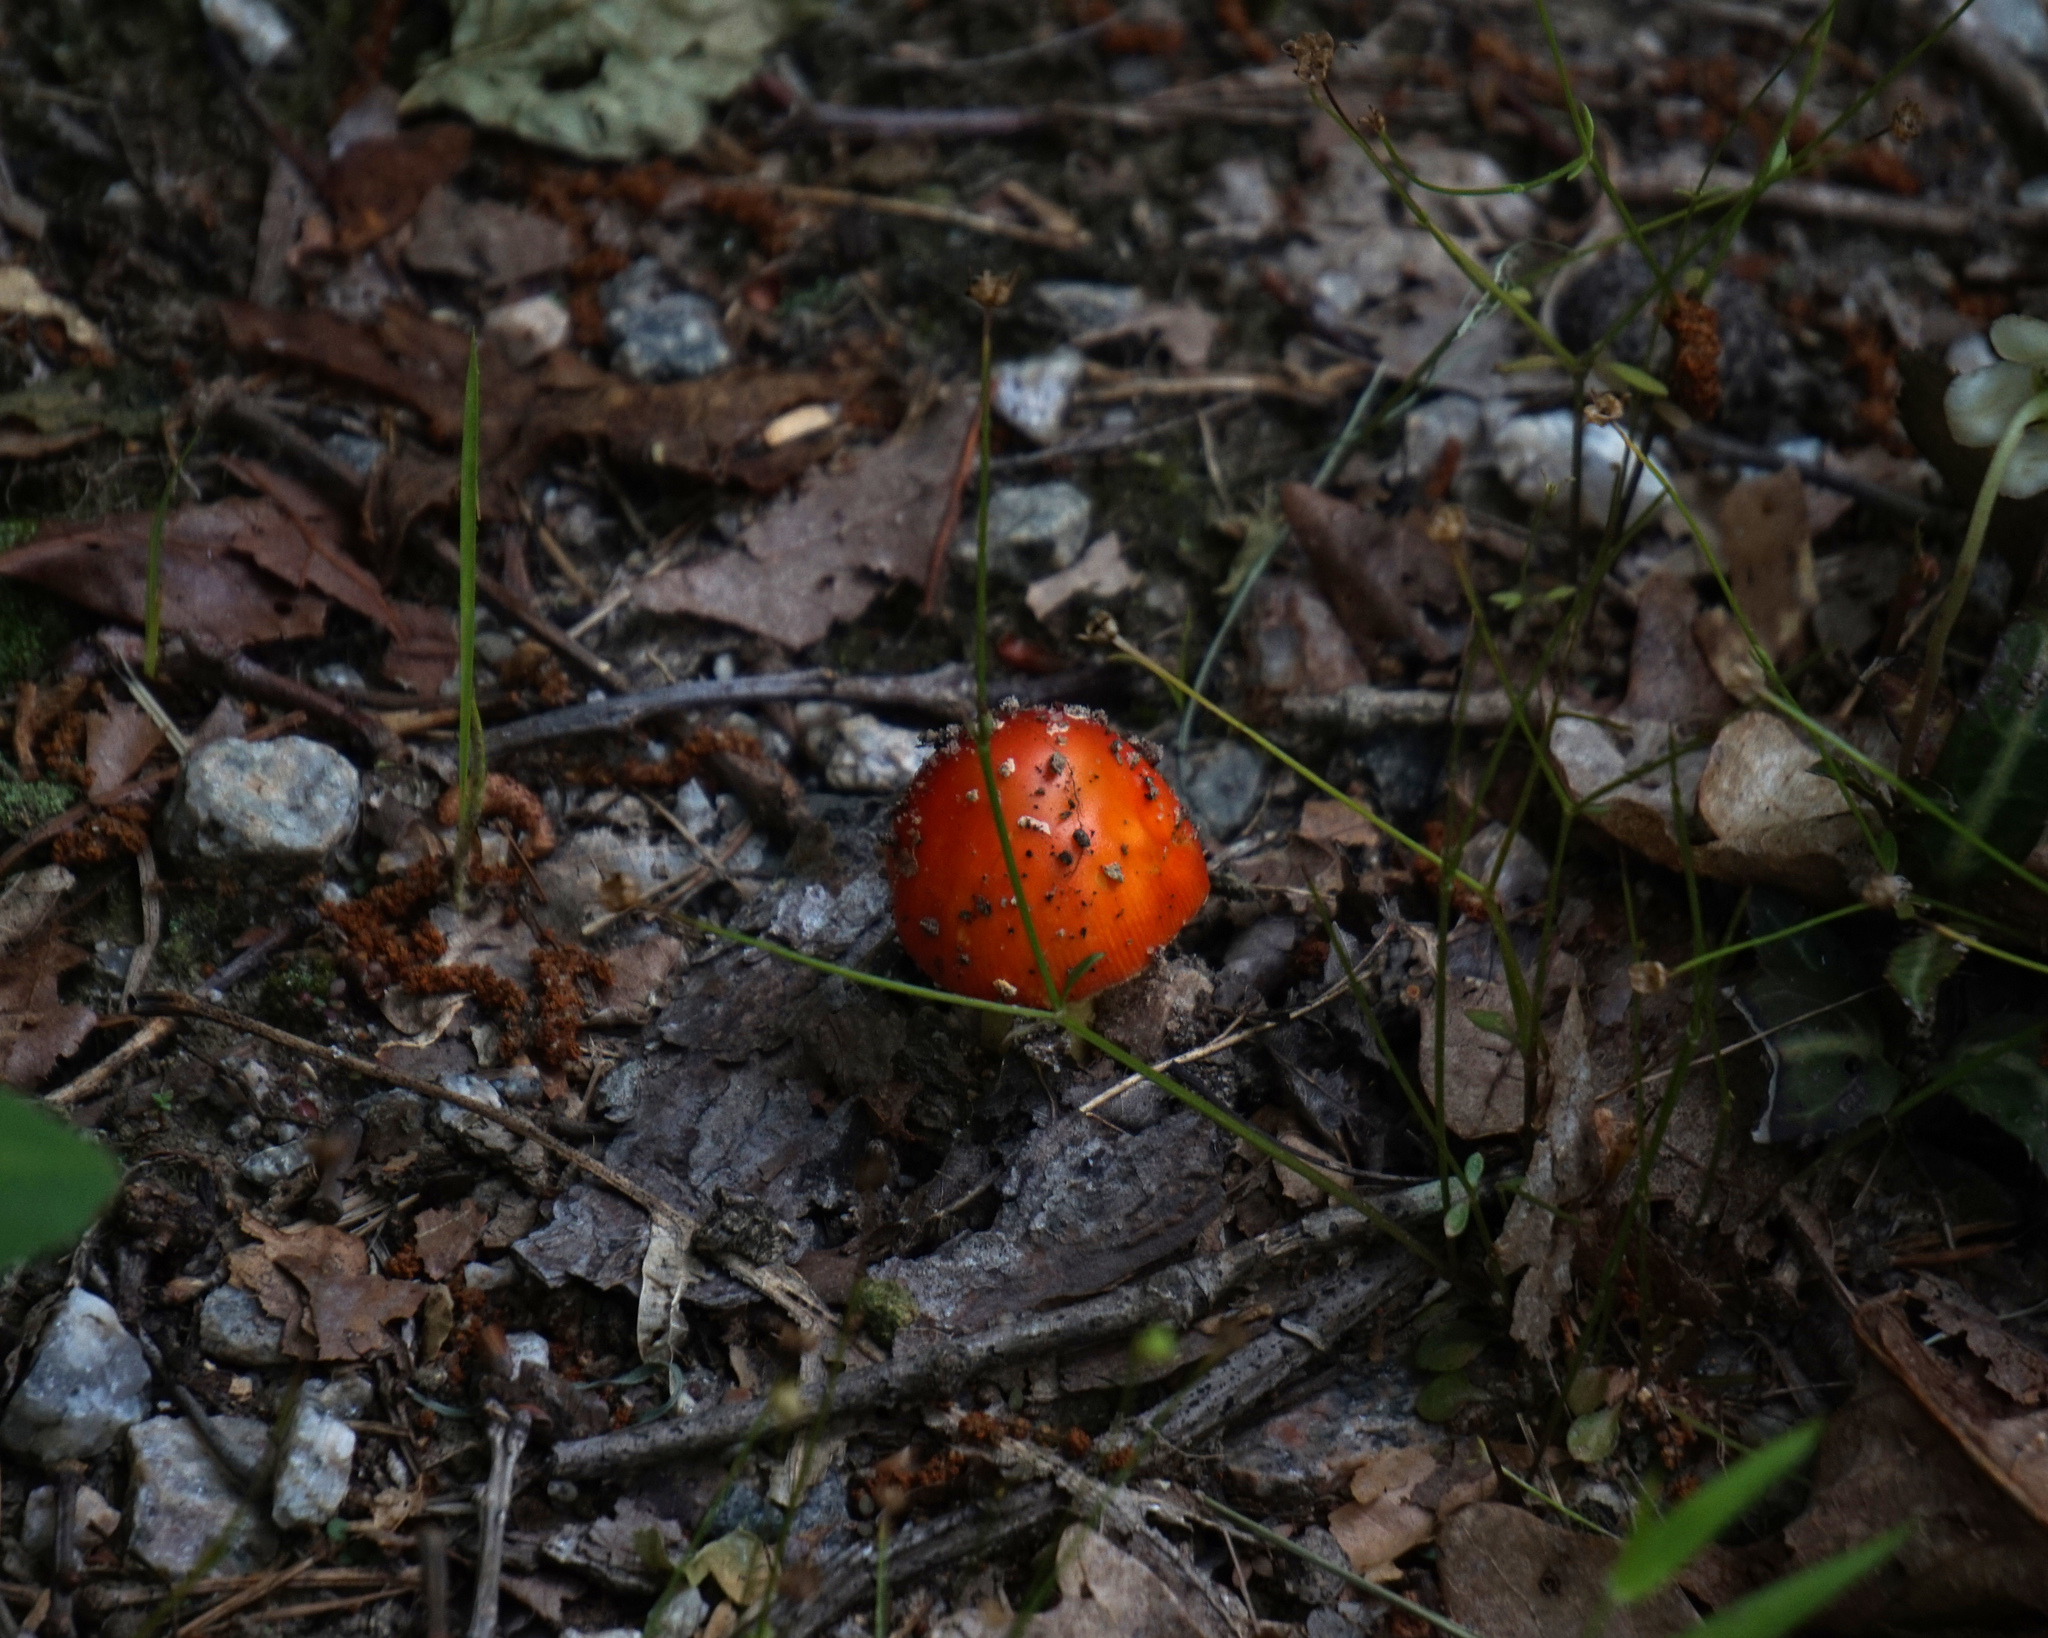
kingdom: Fungi
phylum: Basidiomycota
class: Agaricomycetes
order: Agaricales
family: Amanitaceae
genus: Amanita
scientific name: Amanita parcivolvata
